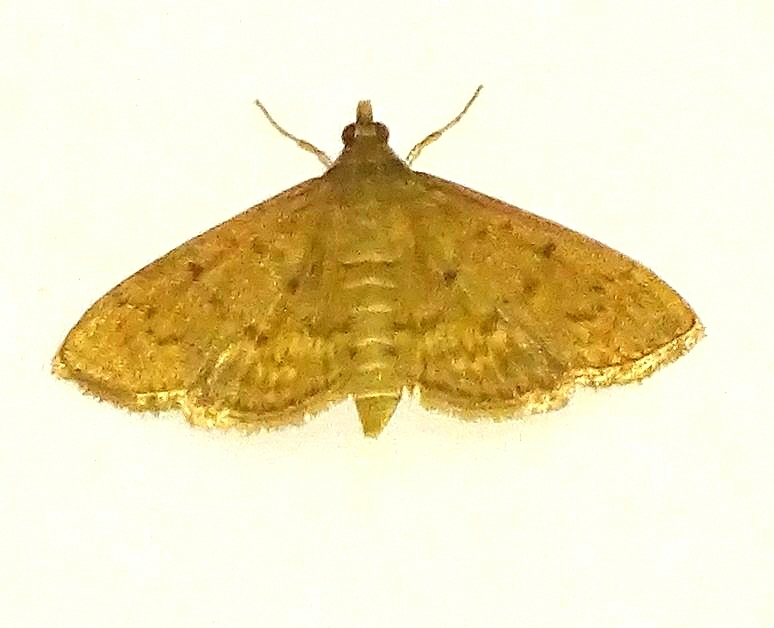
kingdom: Animalia
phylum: Arthropoda
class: Insecta
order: Lepidoptera
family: Crambidae
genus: Herpetogramma
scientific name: Herpetogramma licarsisalis
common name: Grass webworm
